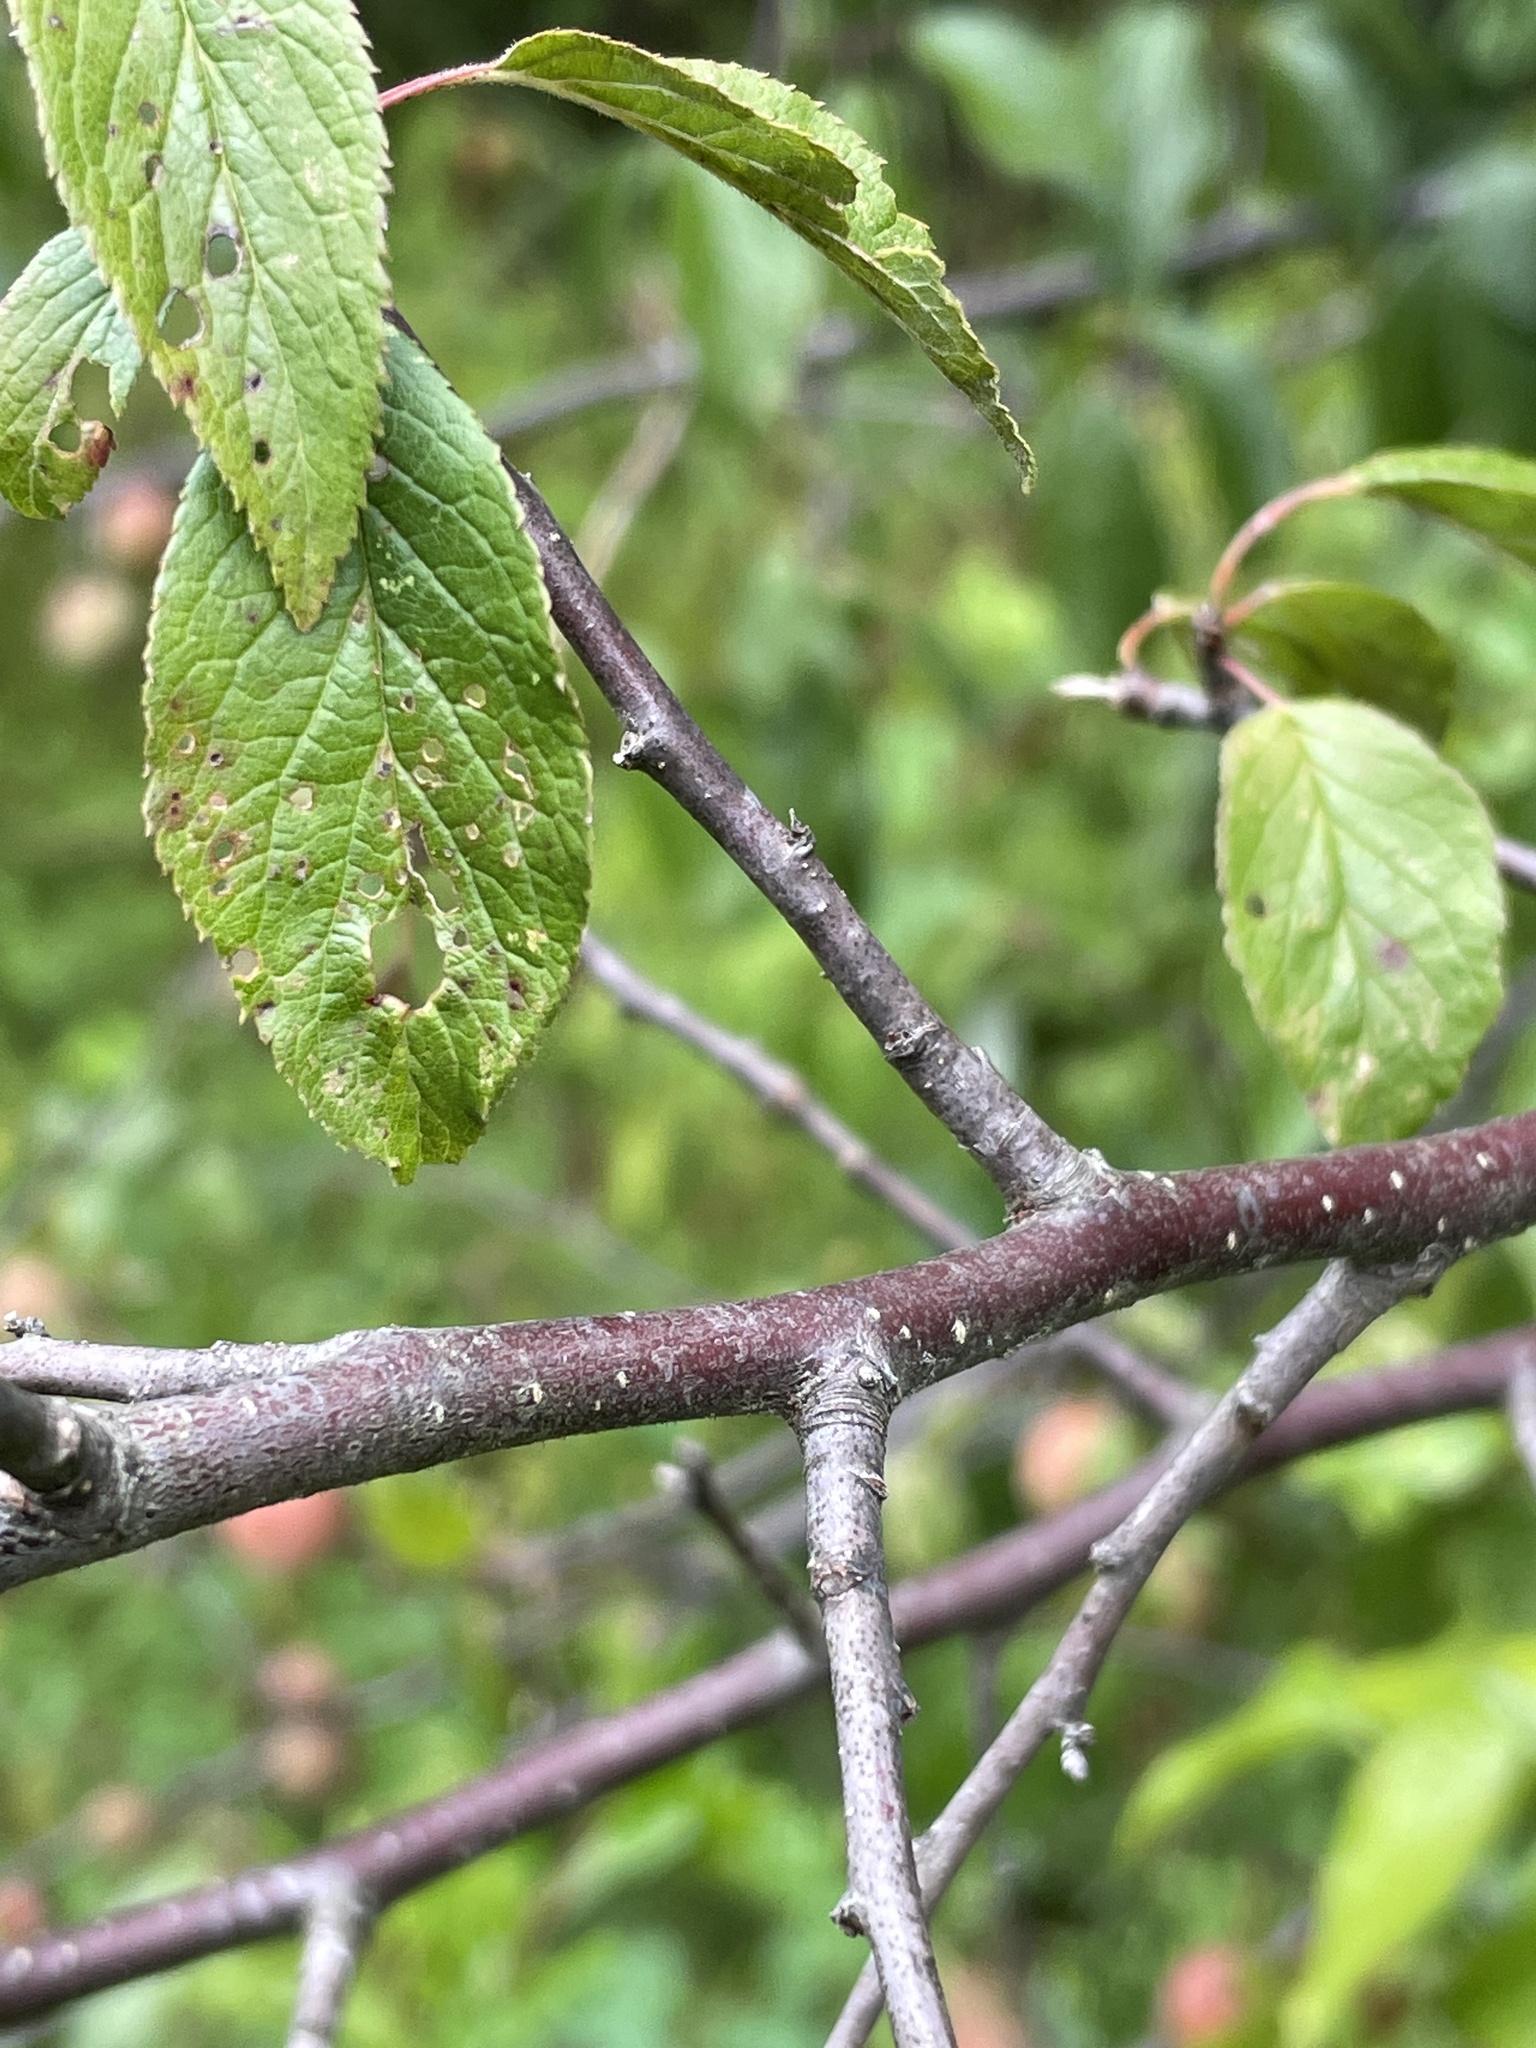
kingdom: Plantae
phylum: Tracheophyta
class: Magnoliopsida
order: Rosales
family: Rosaceae
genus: Prunus
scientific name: Prunus americana
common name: American plum
